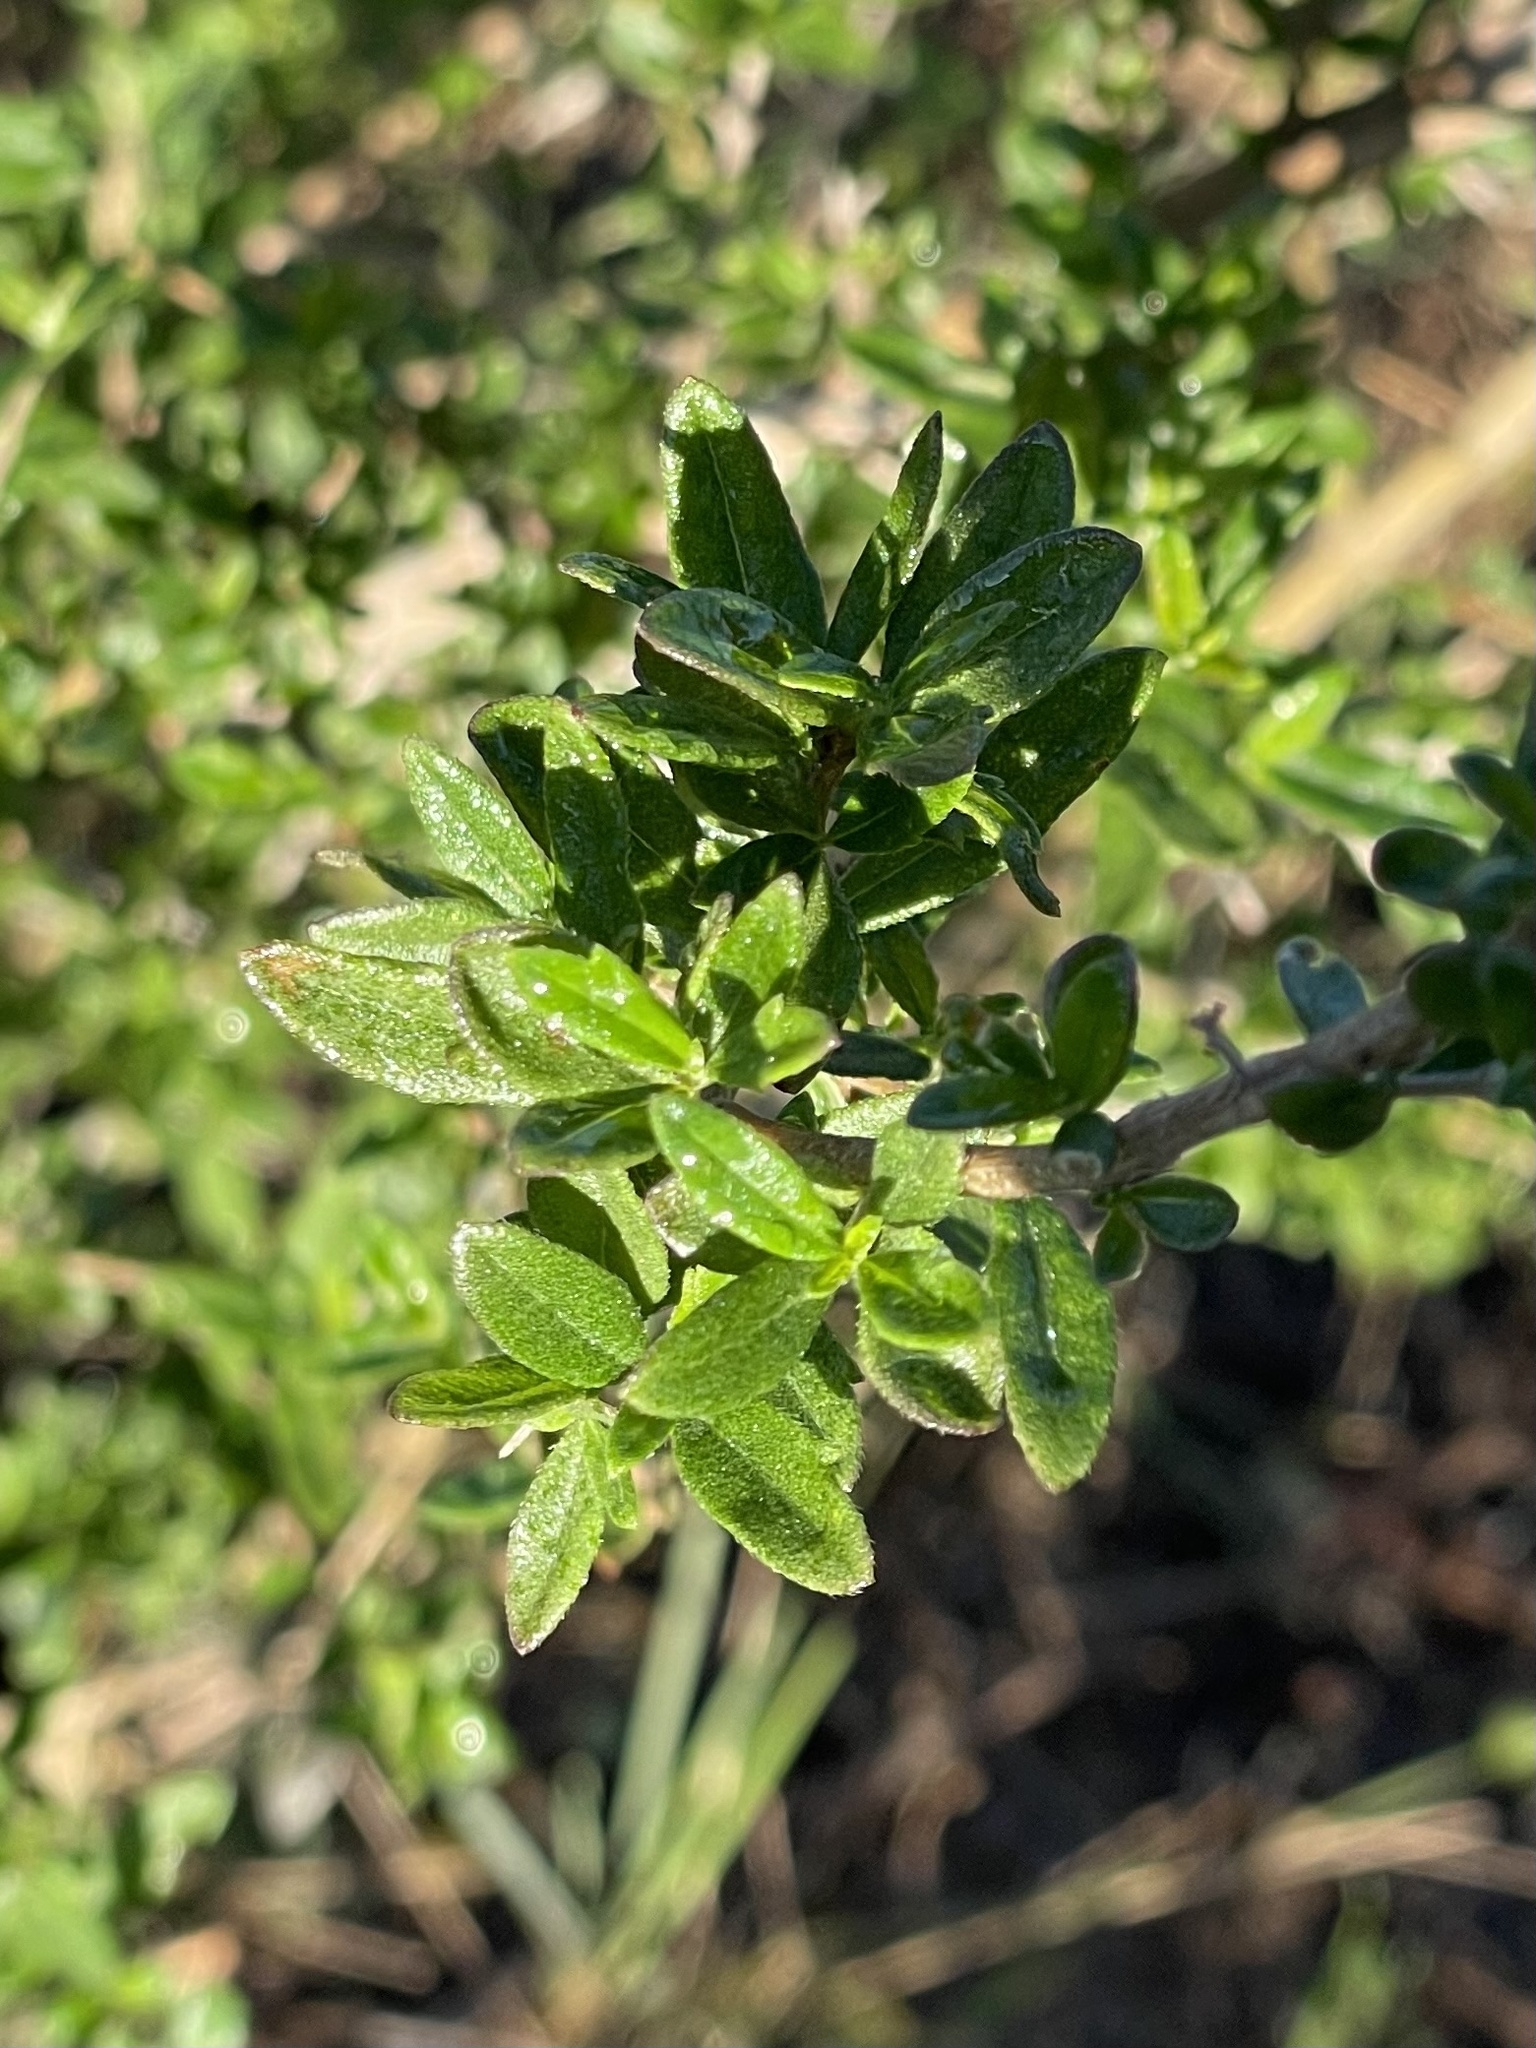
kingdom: Plantae
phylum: Tracheophyta
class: Magnoliopsida
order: Lamiales
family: Verbenaceae
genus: Aloysia
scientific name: Aloysia gratissima
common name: Common bee-brush
